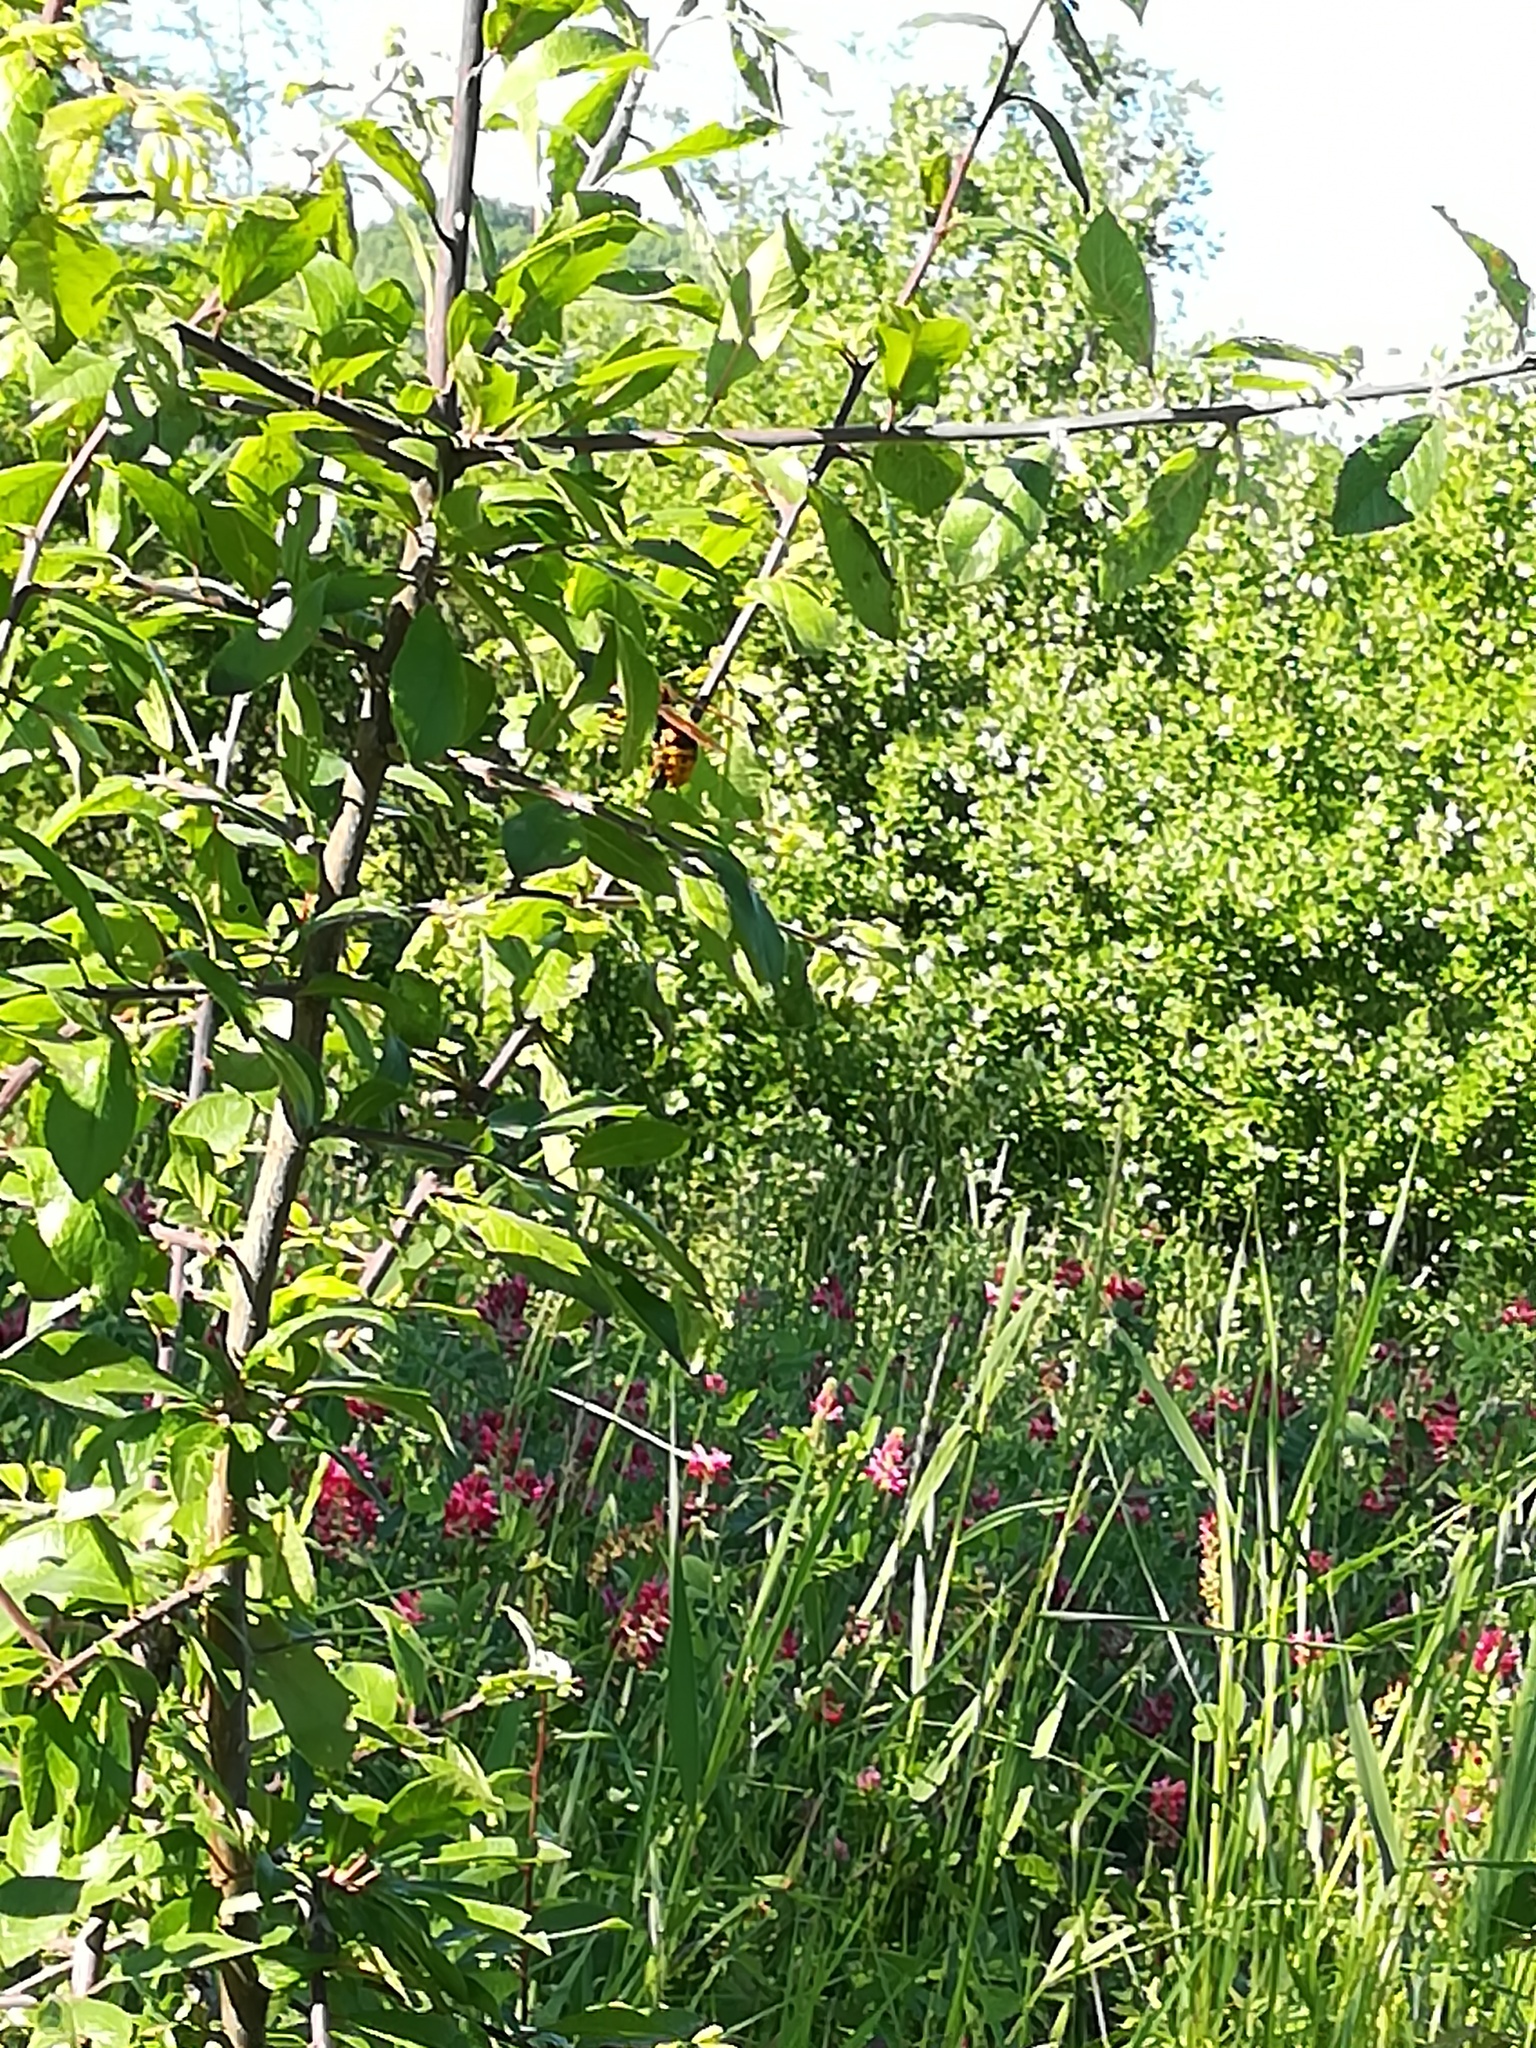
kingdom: Animalia
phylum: Arthropoda
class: Insecta
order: Hymenoptera
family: Vespidae
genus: Vespa
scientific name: Vespa crabro
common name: Hornet
